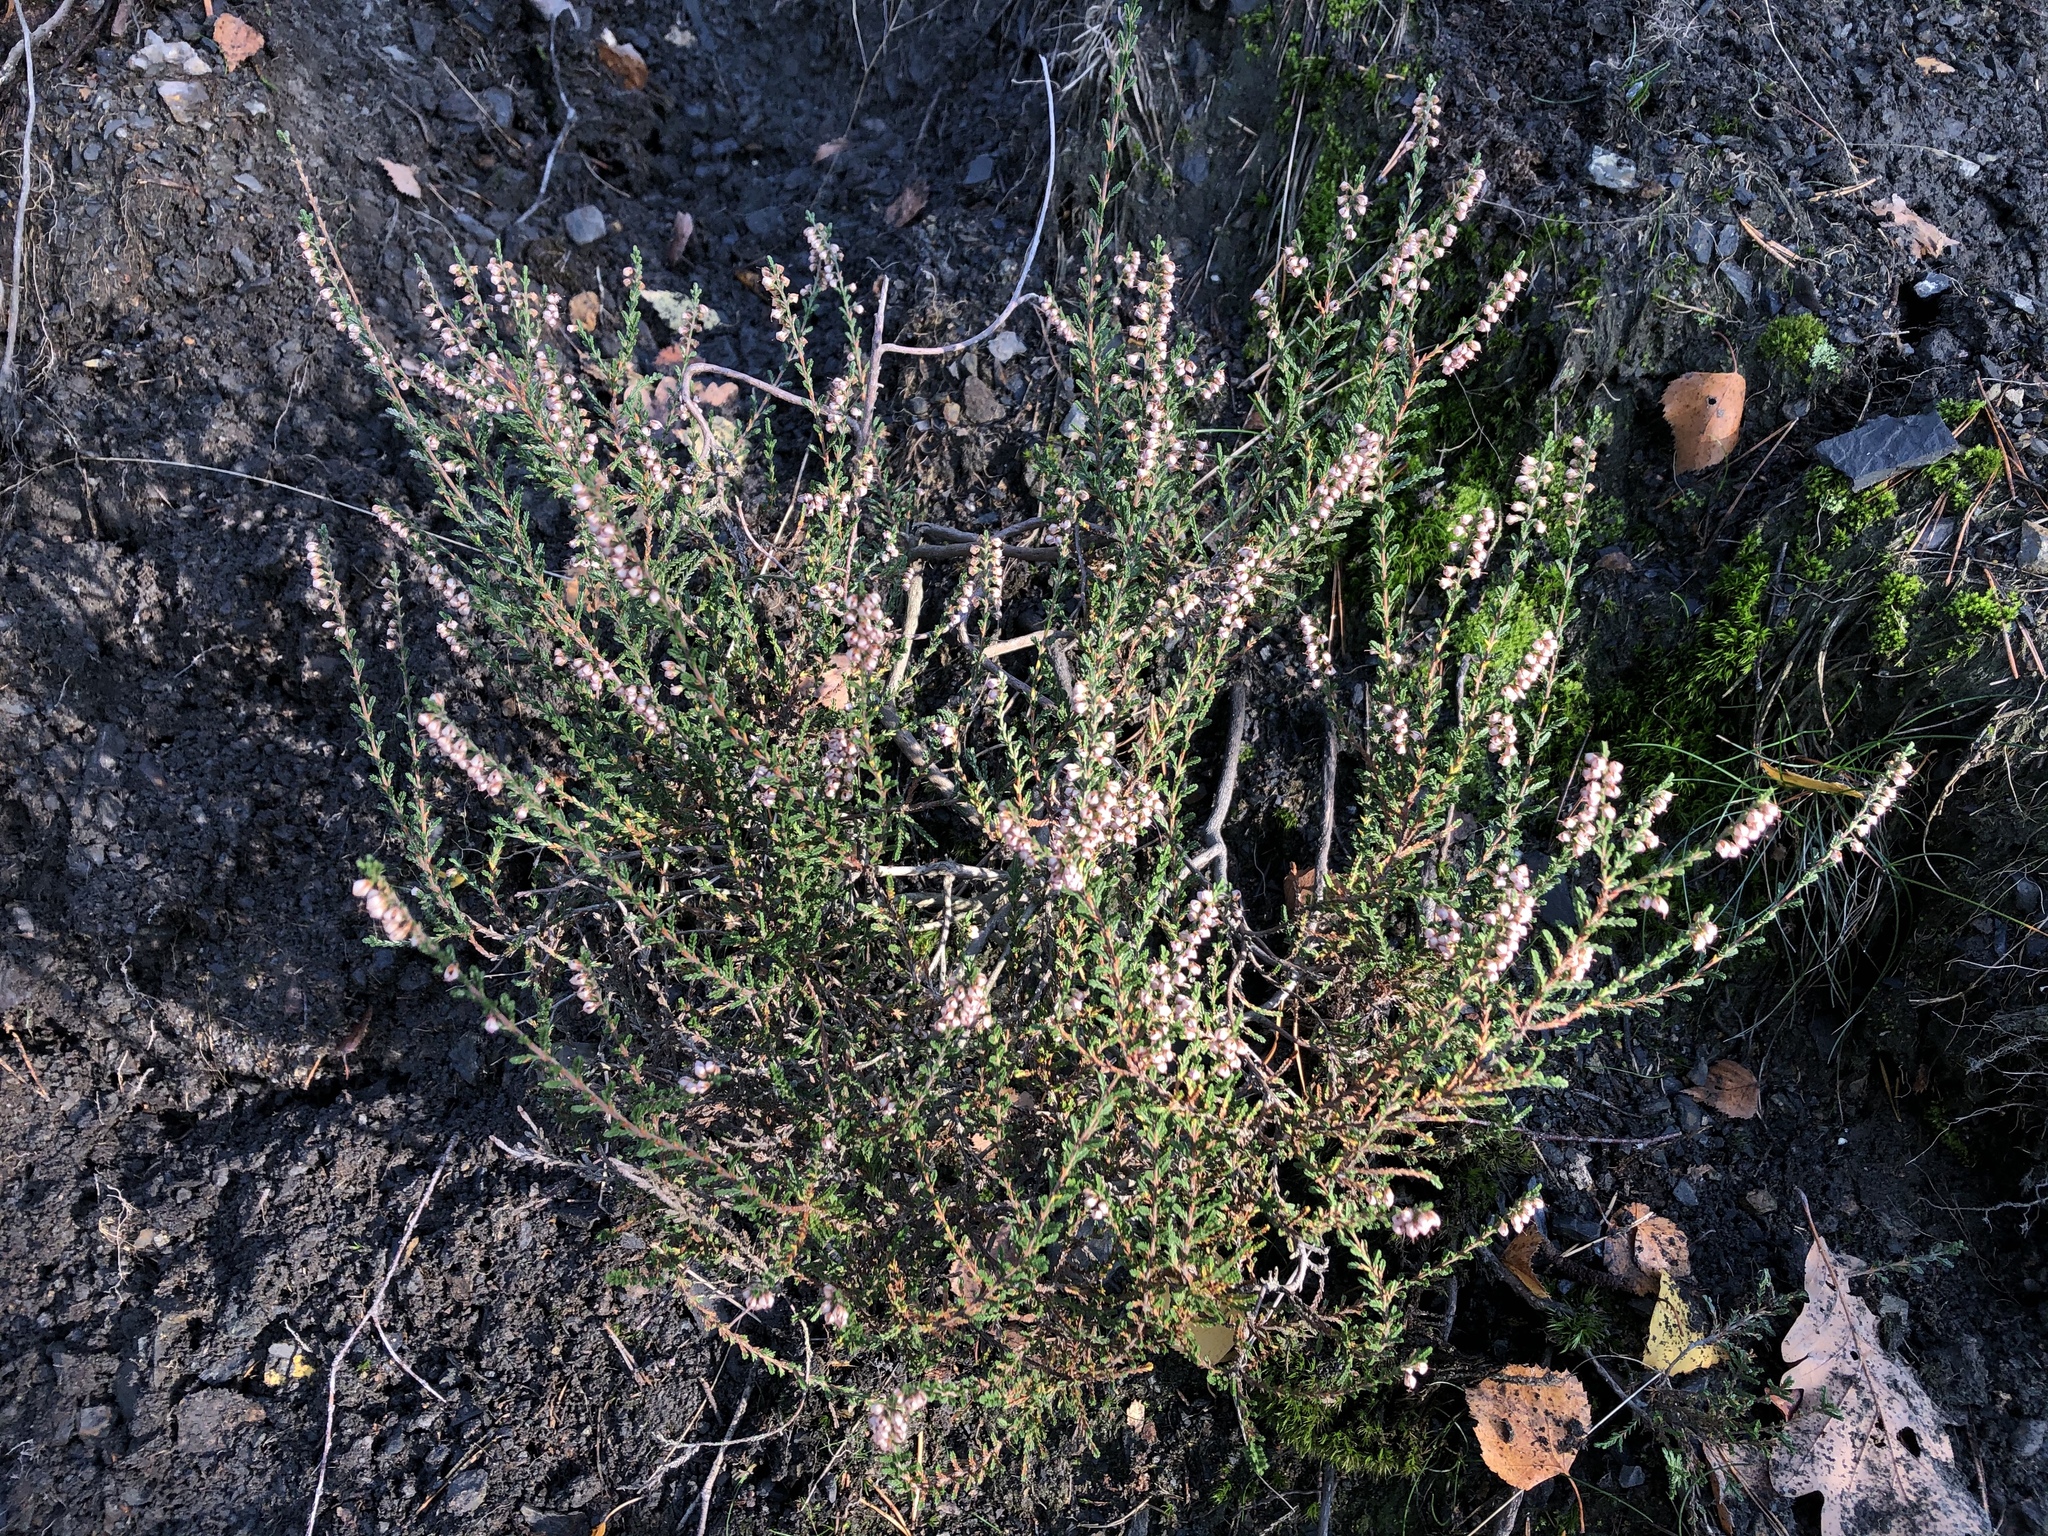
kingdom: Plantae
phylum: Tracheophyta
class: Magnoliopsida
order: Ericales
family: Ericaceae
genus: Calluna
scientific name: Calluna vulgaris
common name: Heather
